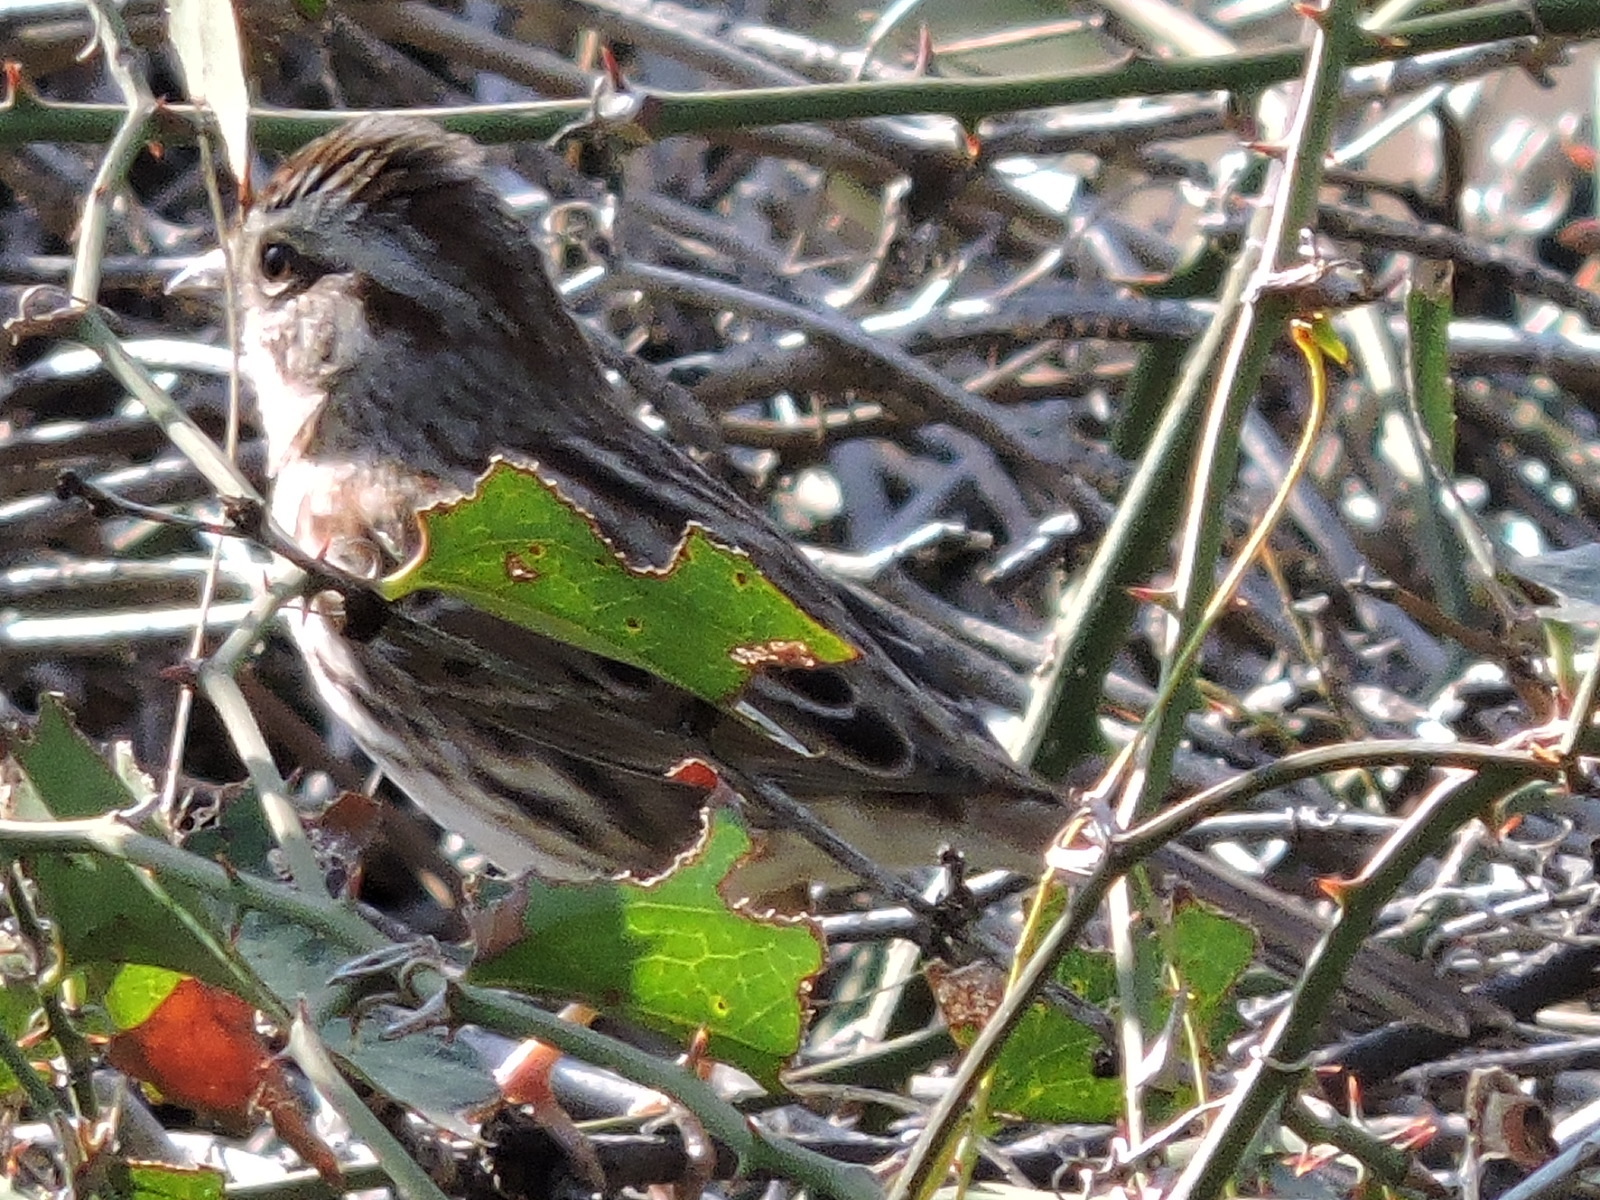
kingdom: Animalia
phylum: Chordata
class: Aves
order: Passeriformes
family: Passerellidae
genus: Melospiza
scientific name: Melospiza melodia
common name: Song sparrow
